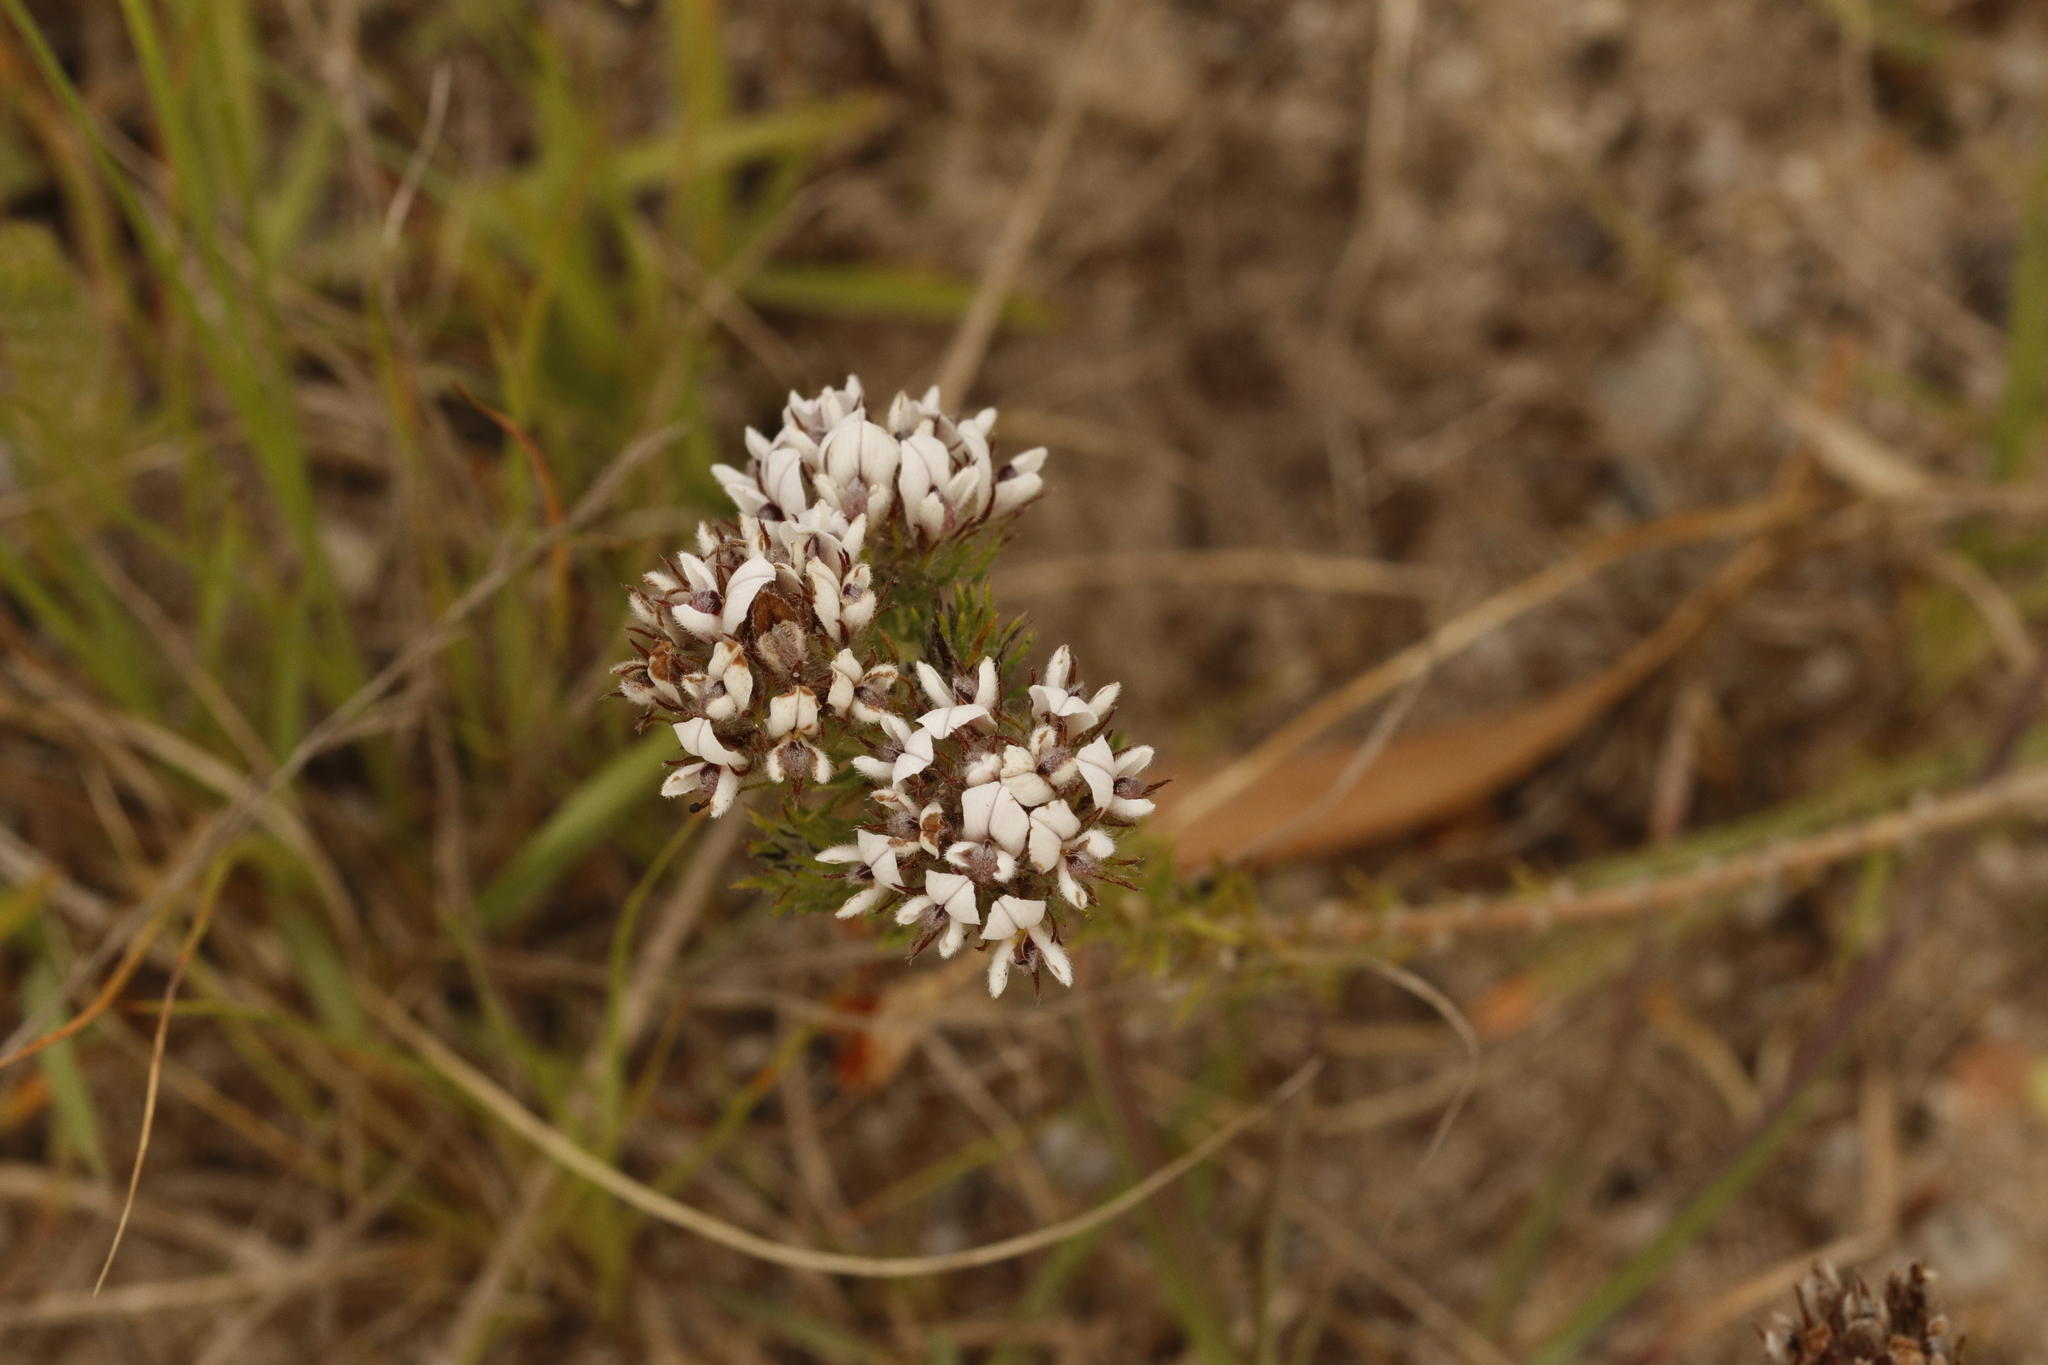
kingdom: Plantae
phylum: Tracheophyta
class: Magnoliopsida
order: Fabales
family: Fabaceae
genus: Aspalathus
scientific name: Aspalathus cerrhantha
